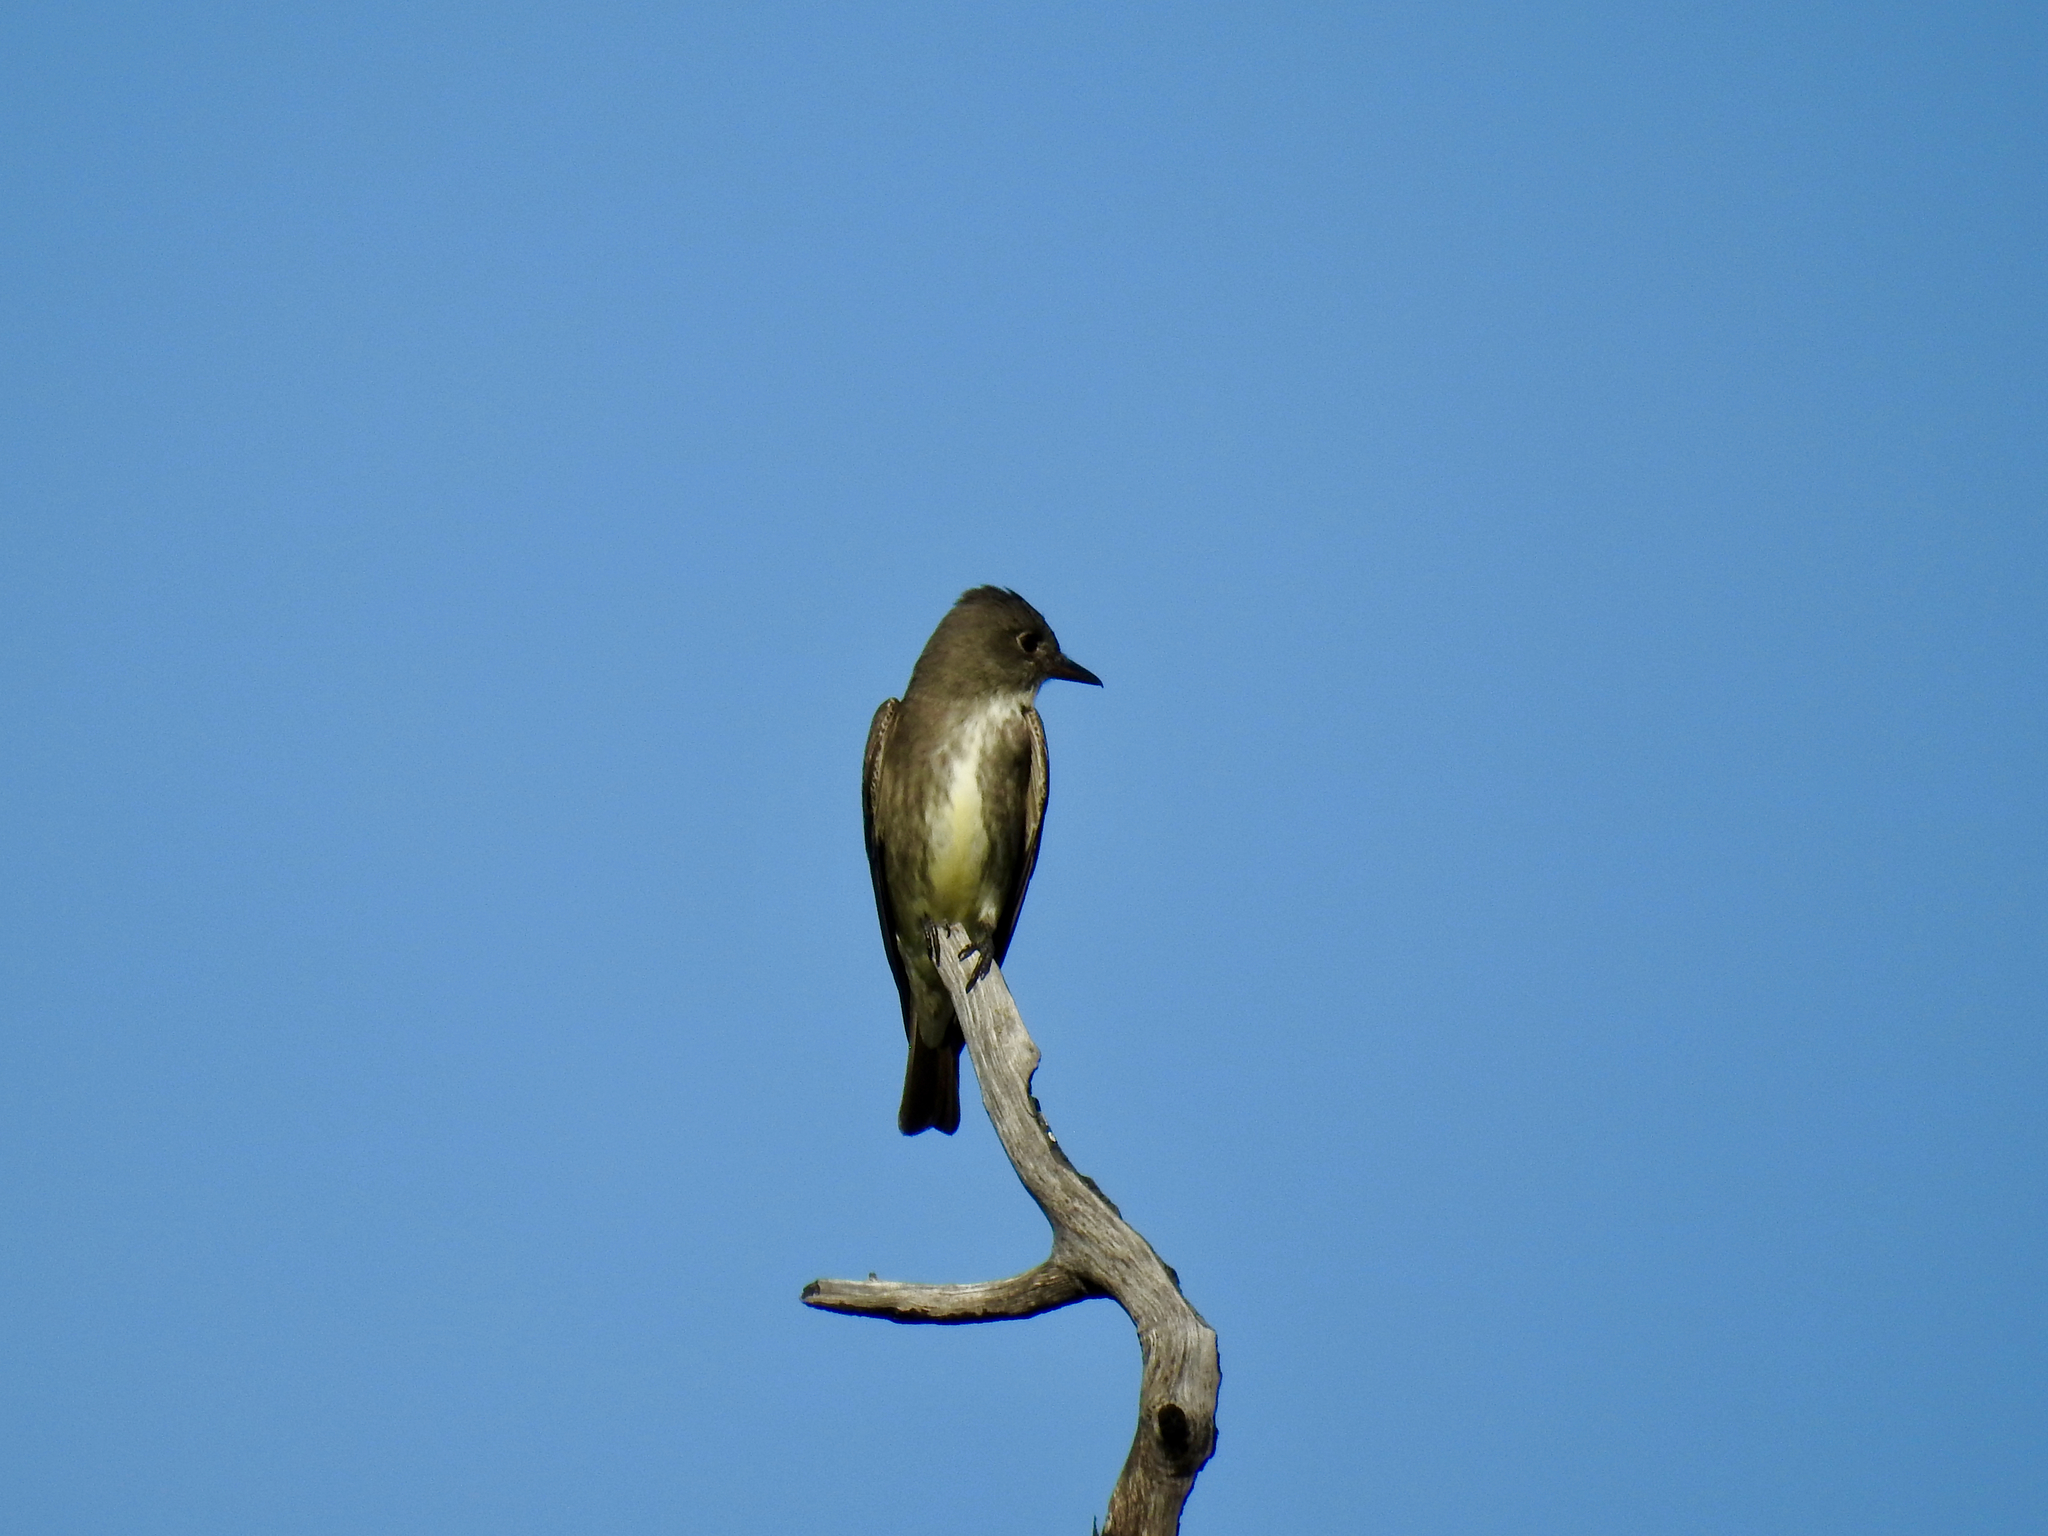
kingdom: Animalia
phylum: Chordata
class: Aves
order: Passeriformes
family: Tyrannidae
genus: Contopus
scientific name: Contopus cooperi
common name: Olive-sided flycatcher
